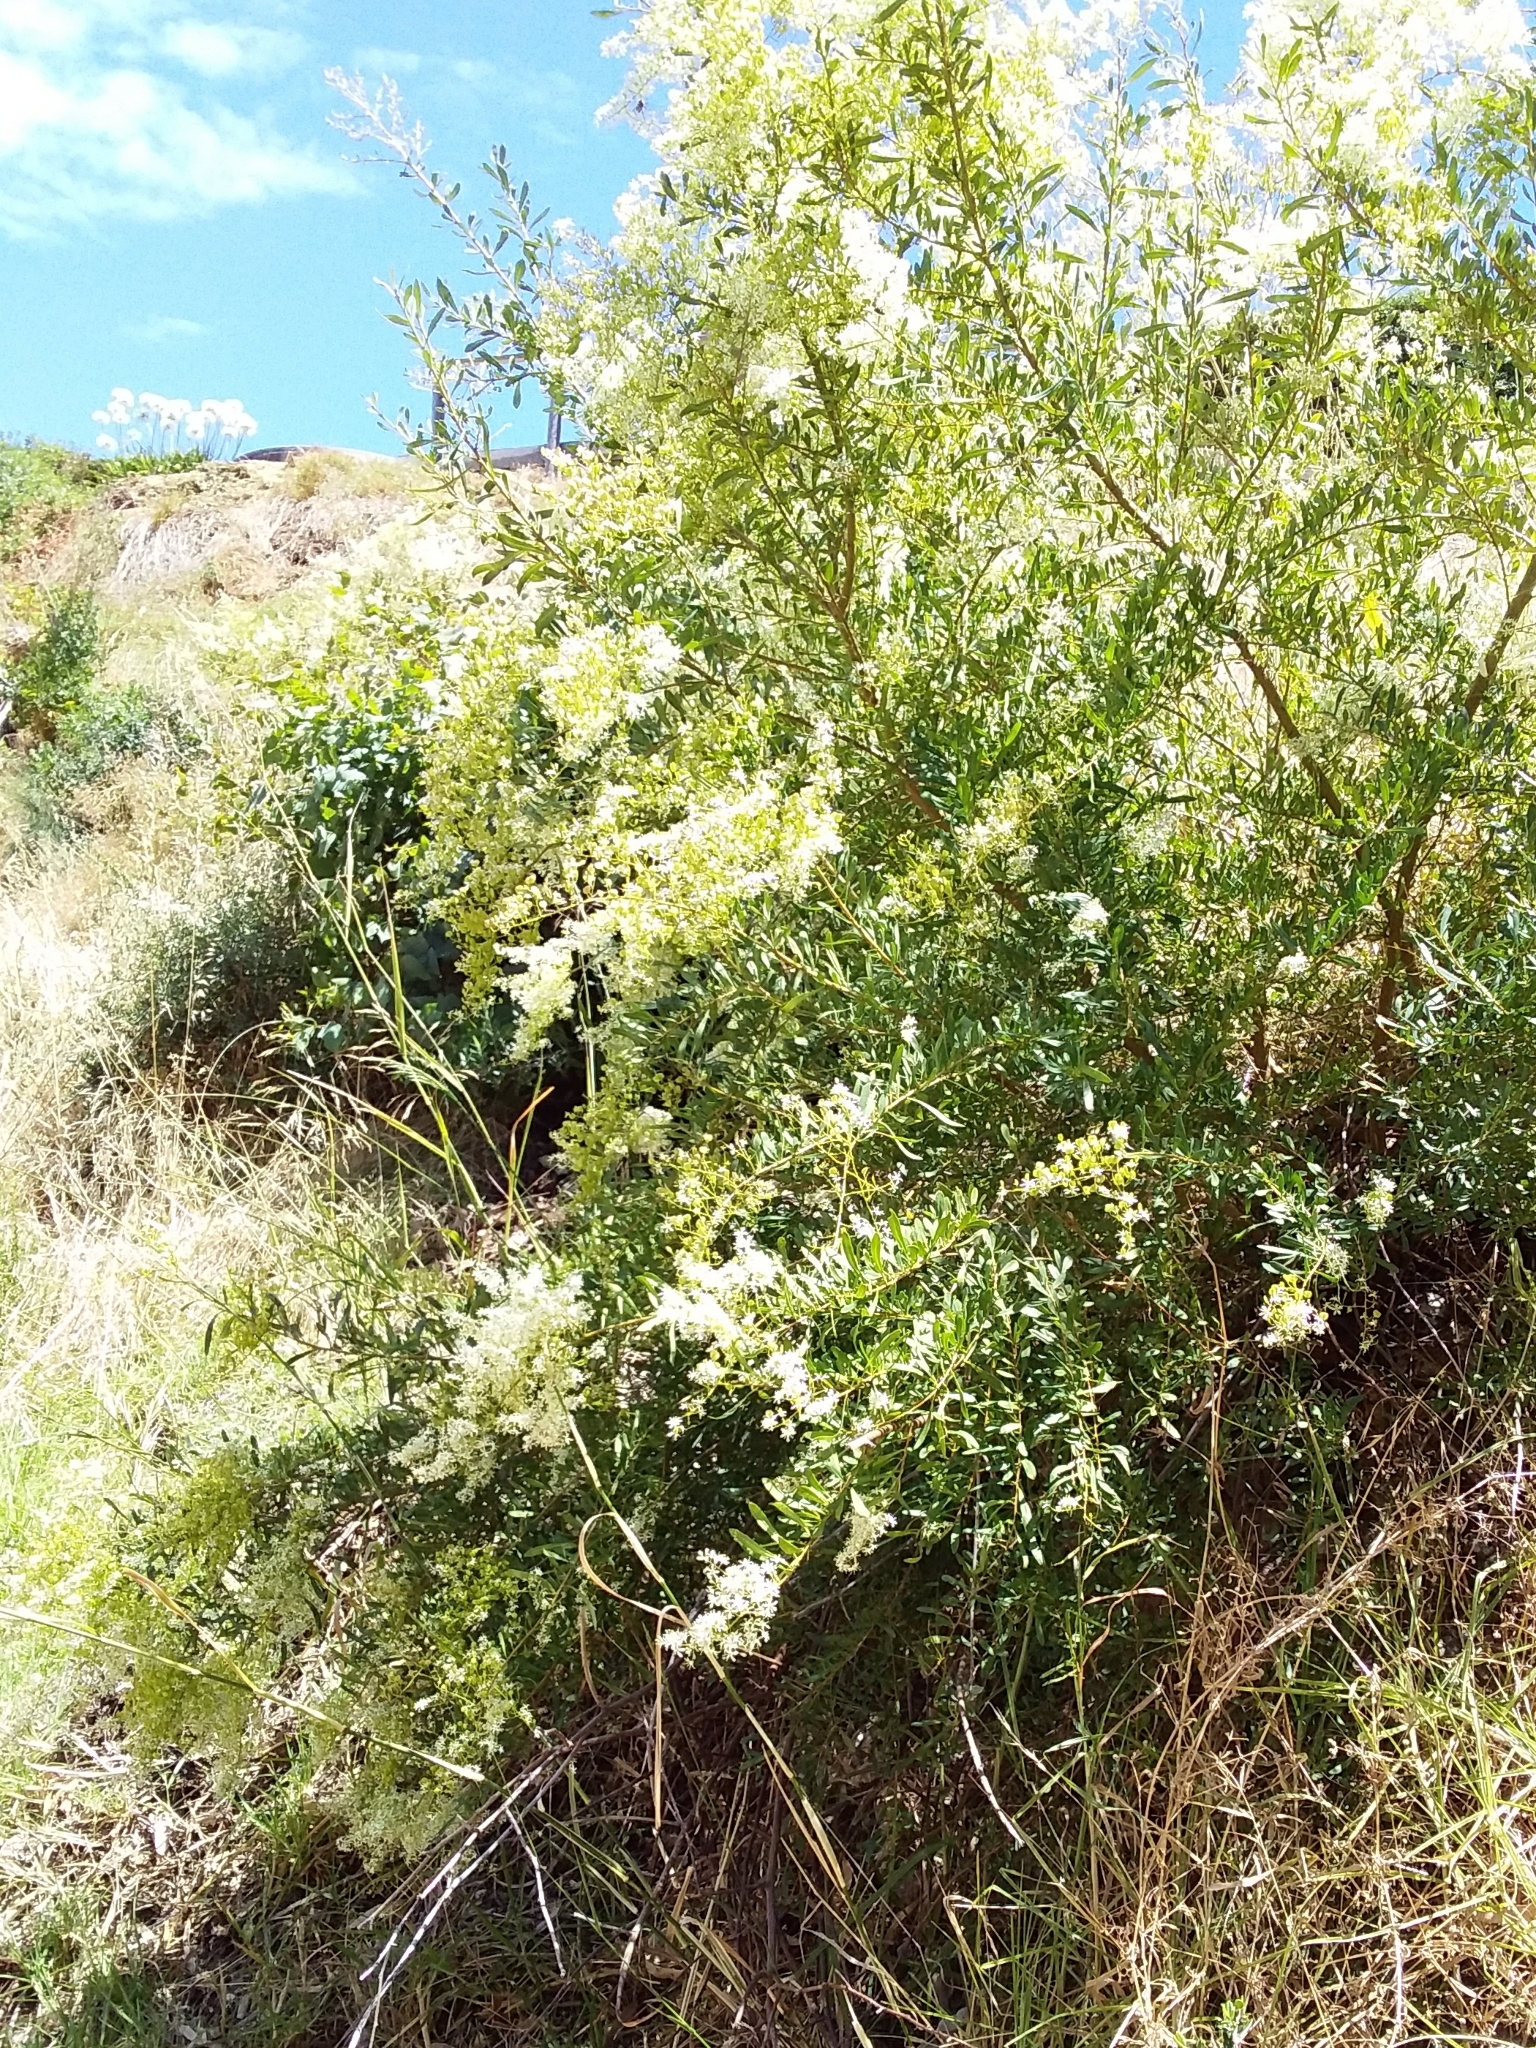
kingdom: Plantae
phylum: Tracheophyta
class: Magnoliopsida
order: Apiales
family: Pittosporaceae
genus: Bursaria
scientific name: Bursaria spinosa
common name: Australian blackthorn
